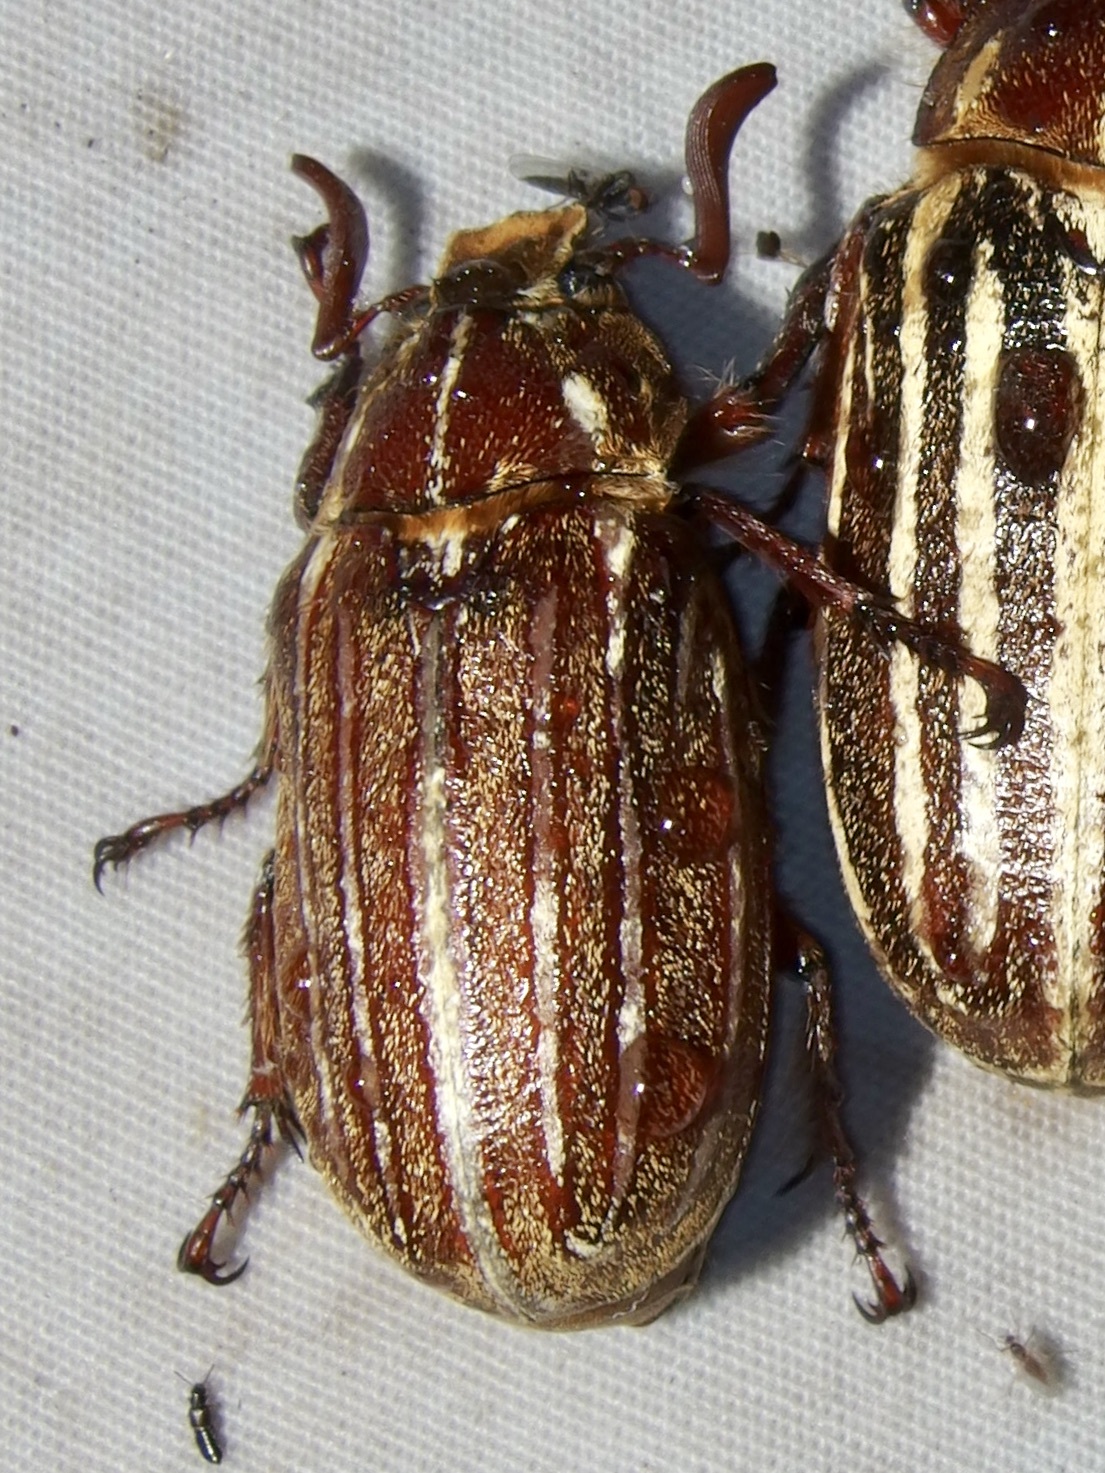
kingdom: Animalia
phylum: Arthropoda
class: Insecta
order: Coleoptera
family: Scarabaeidae
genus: Polyphylla
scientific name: Polyphylla hammondi
